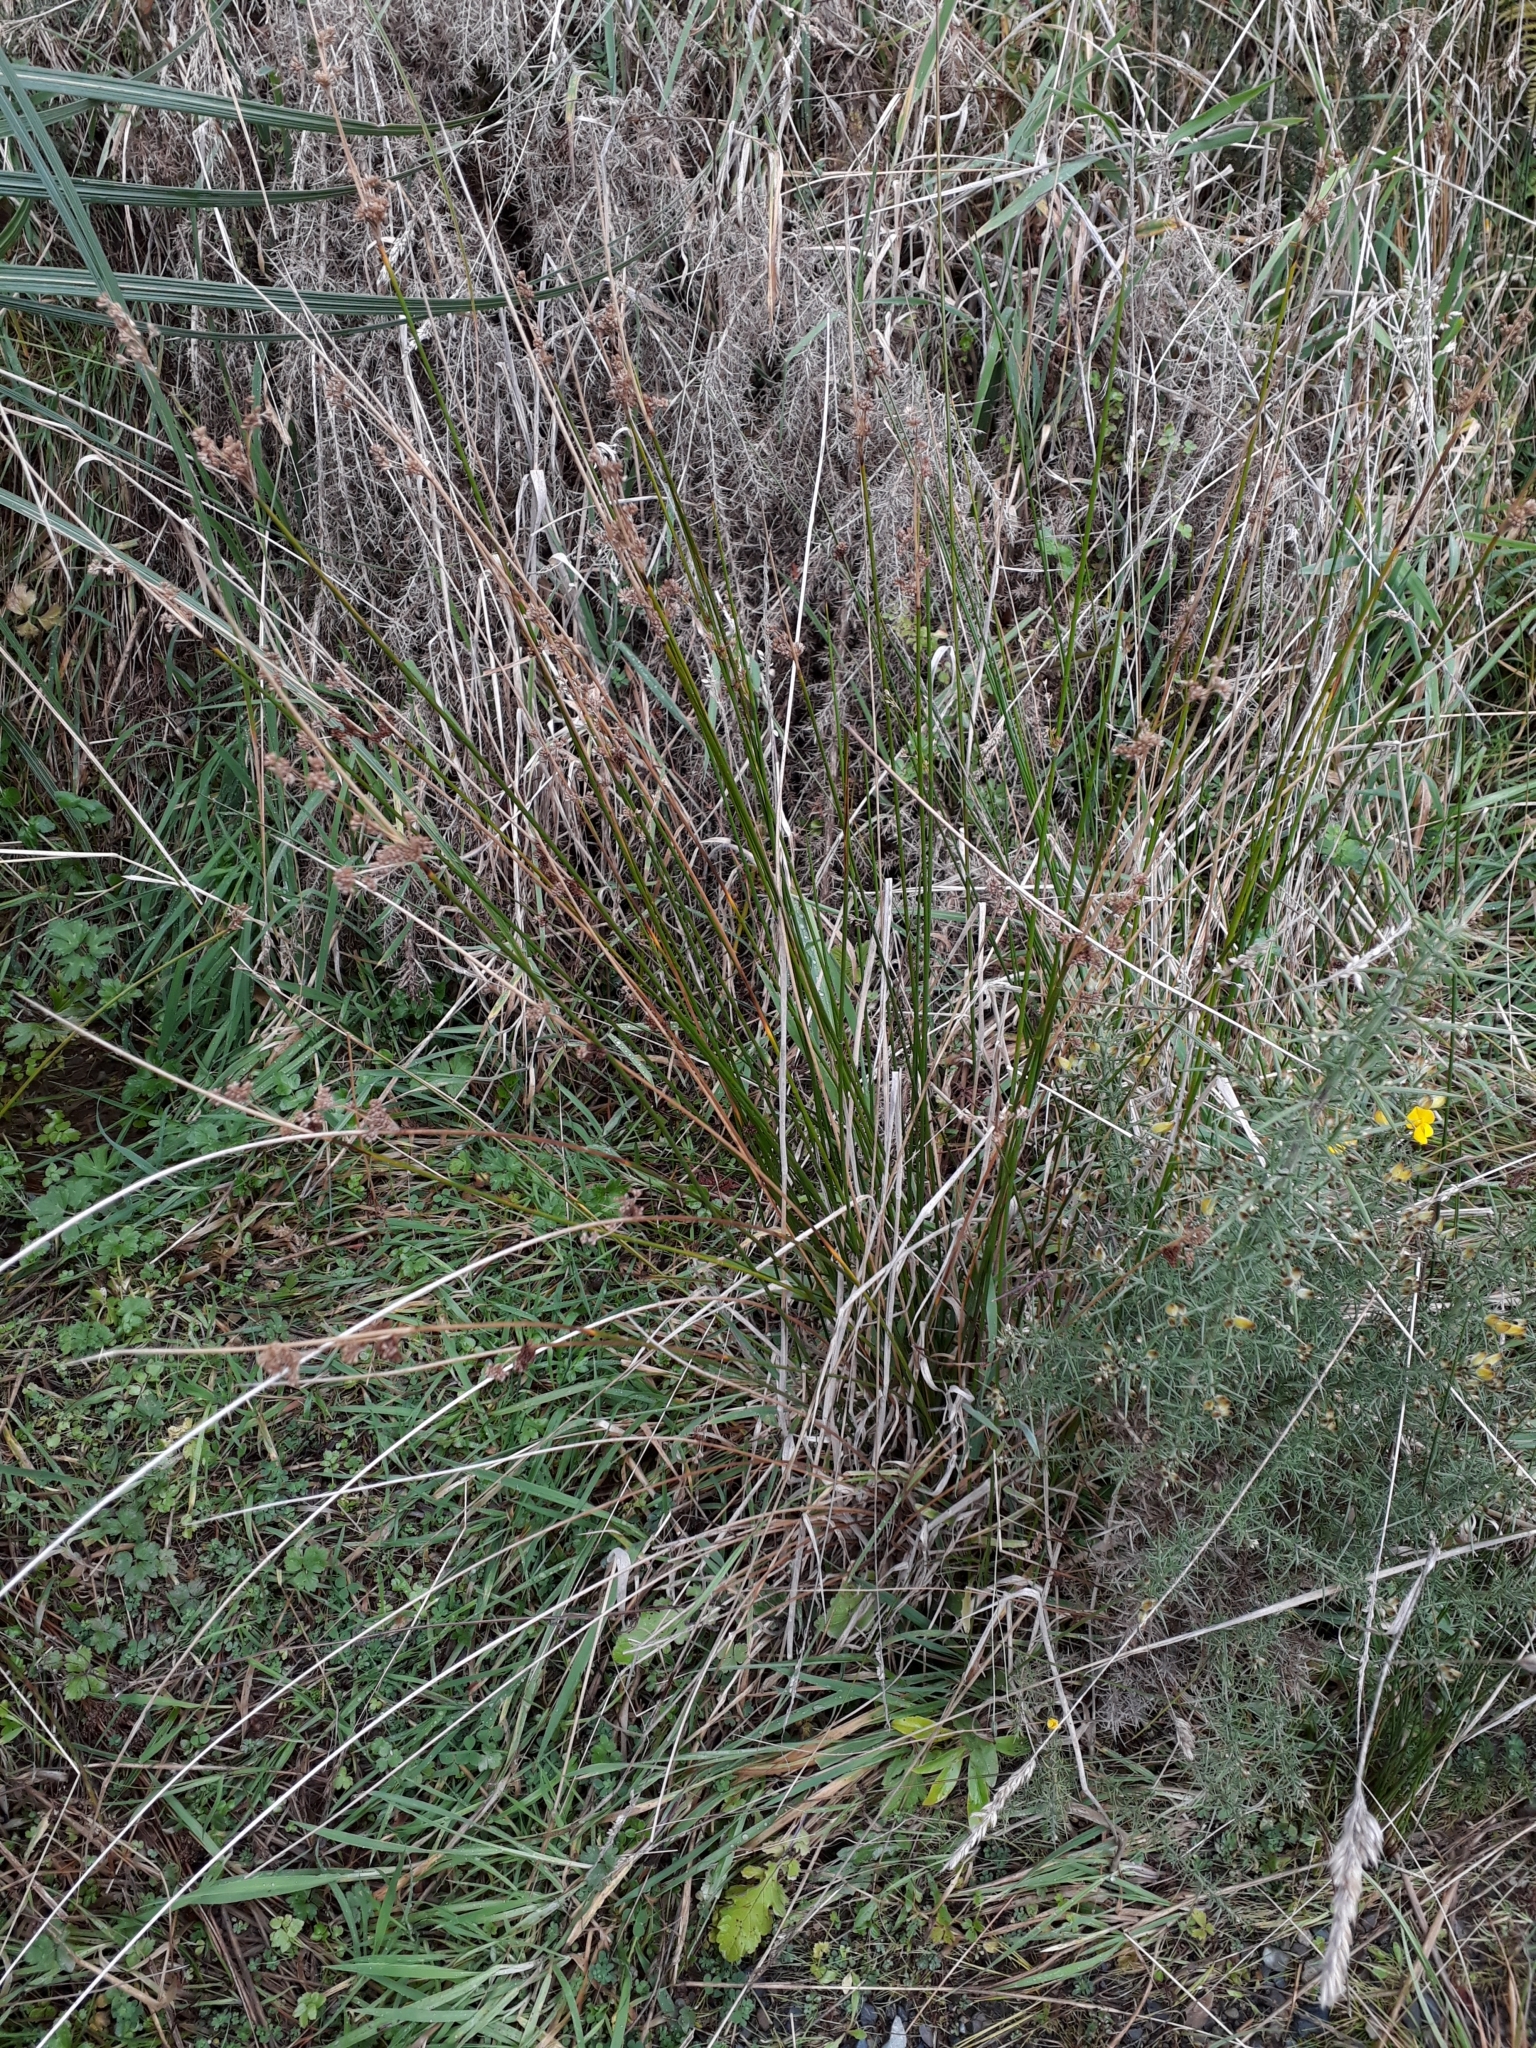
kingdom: Plantae
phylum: Tracheophyta
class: Liliopsida
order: Poales
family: Juncaceae
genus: Juncus
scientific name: Juncus edgariae
